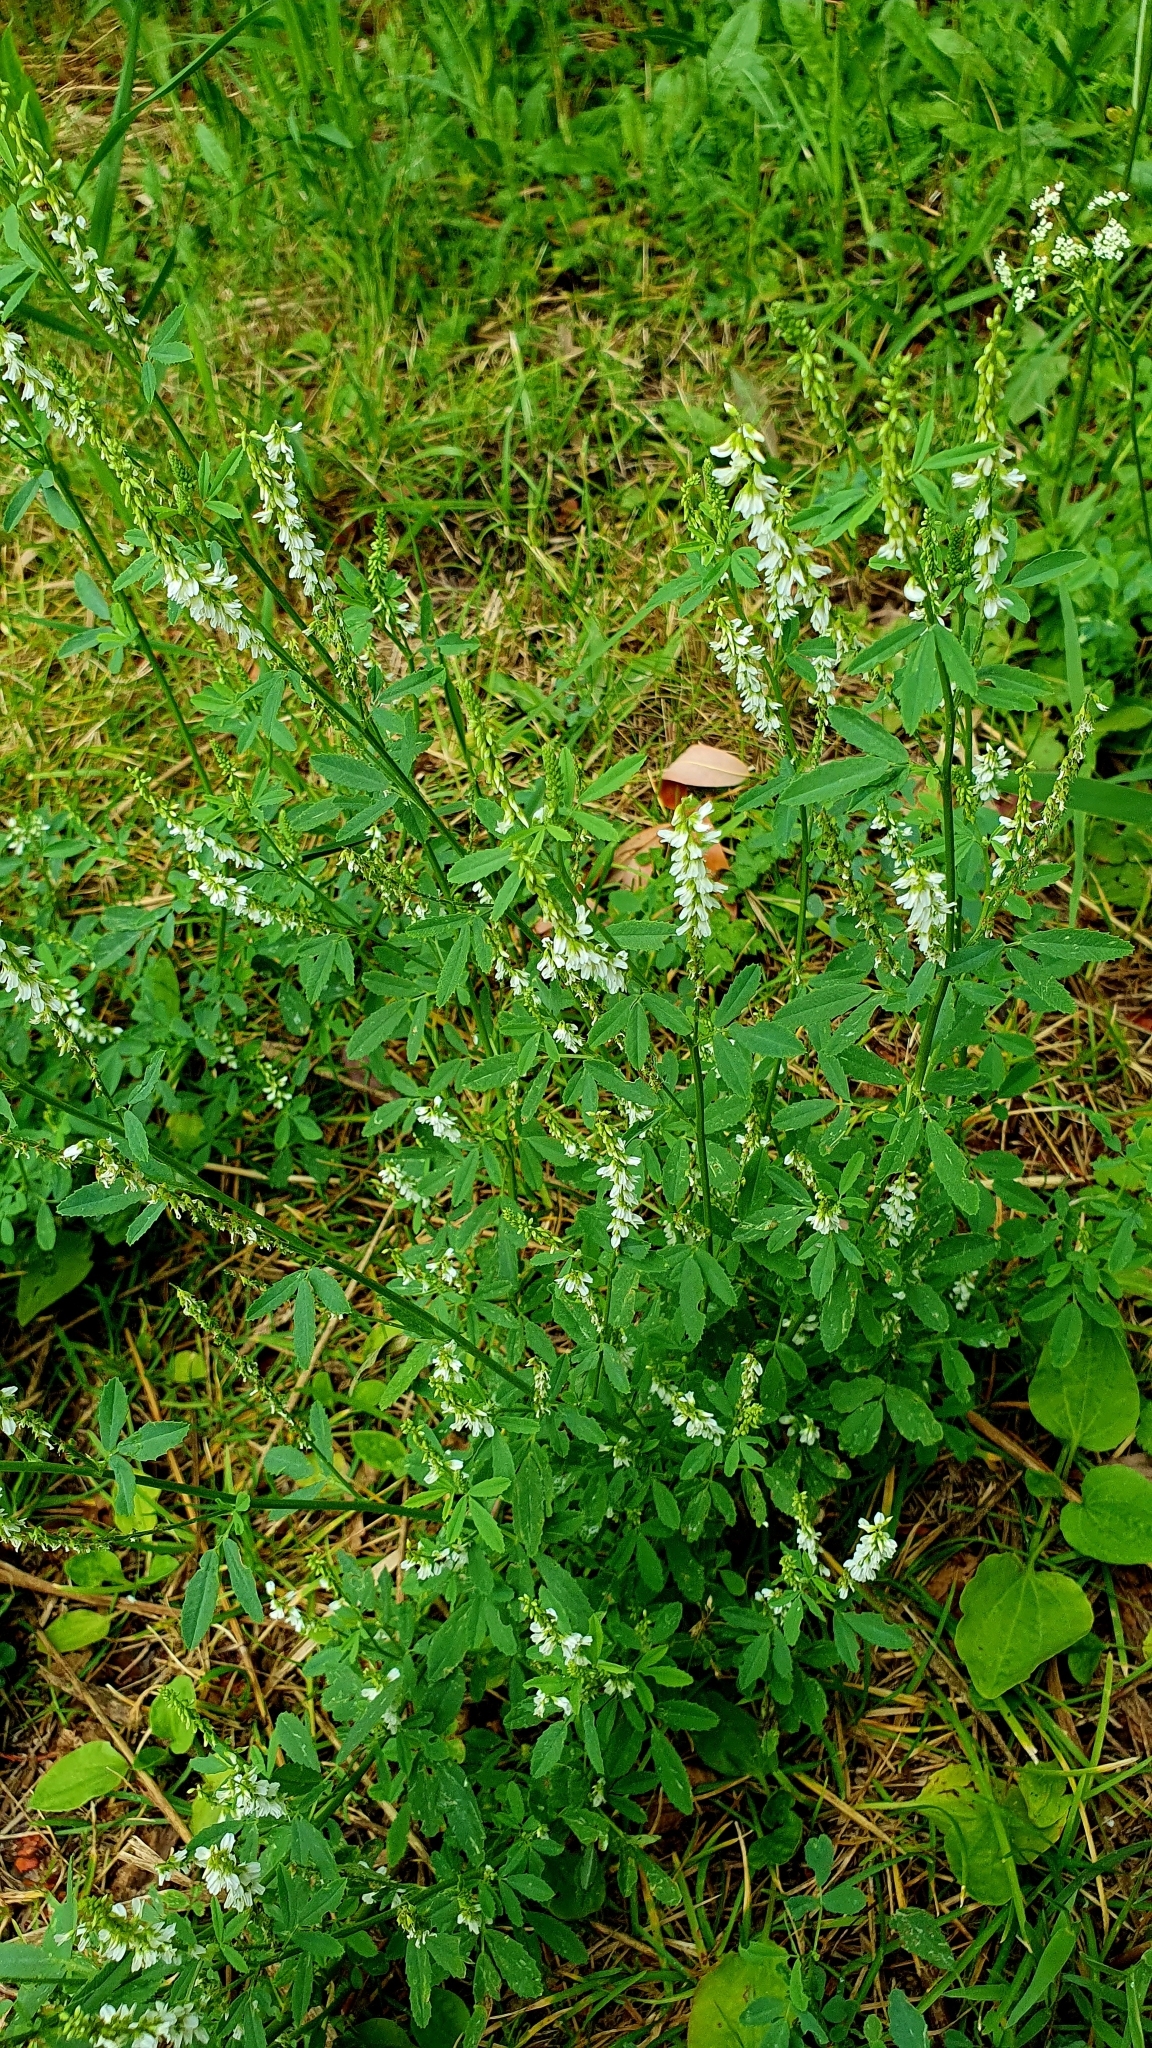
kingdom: Plantae
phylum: Tracheophyta
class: Magnoliopsida
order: Fabales
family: Fabaceae
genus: Melilotus
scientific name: Melilotus albus
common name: White melilot
